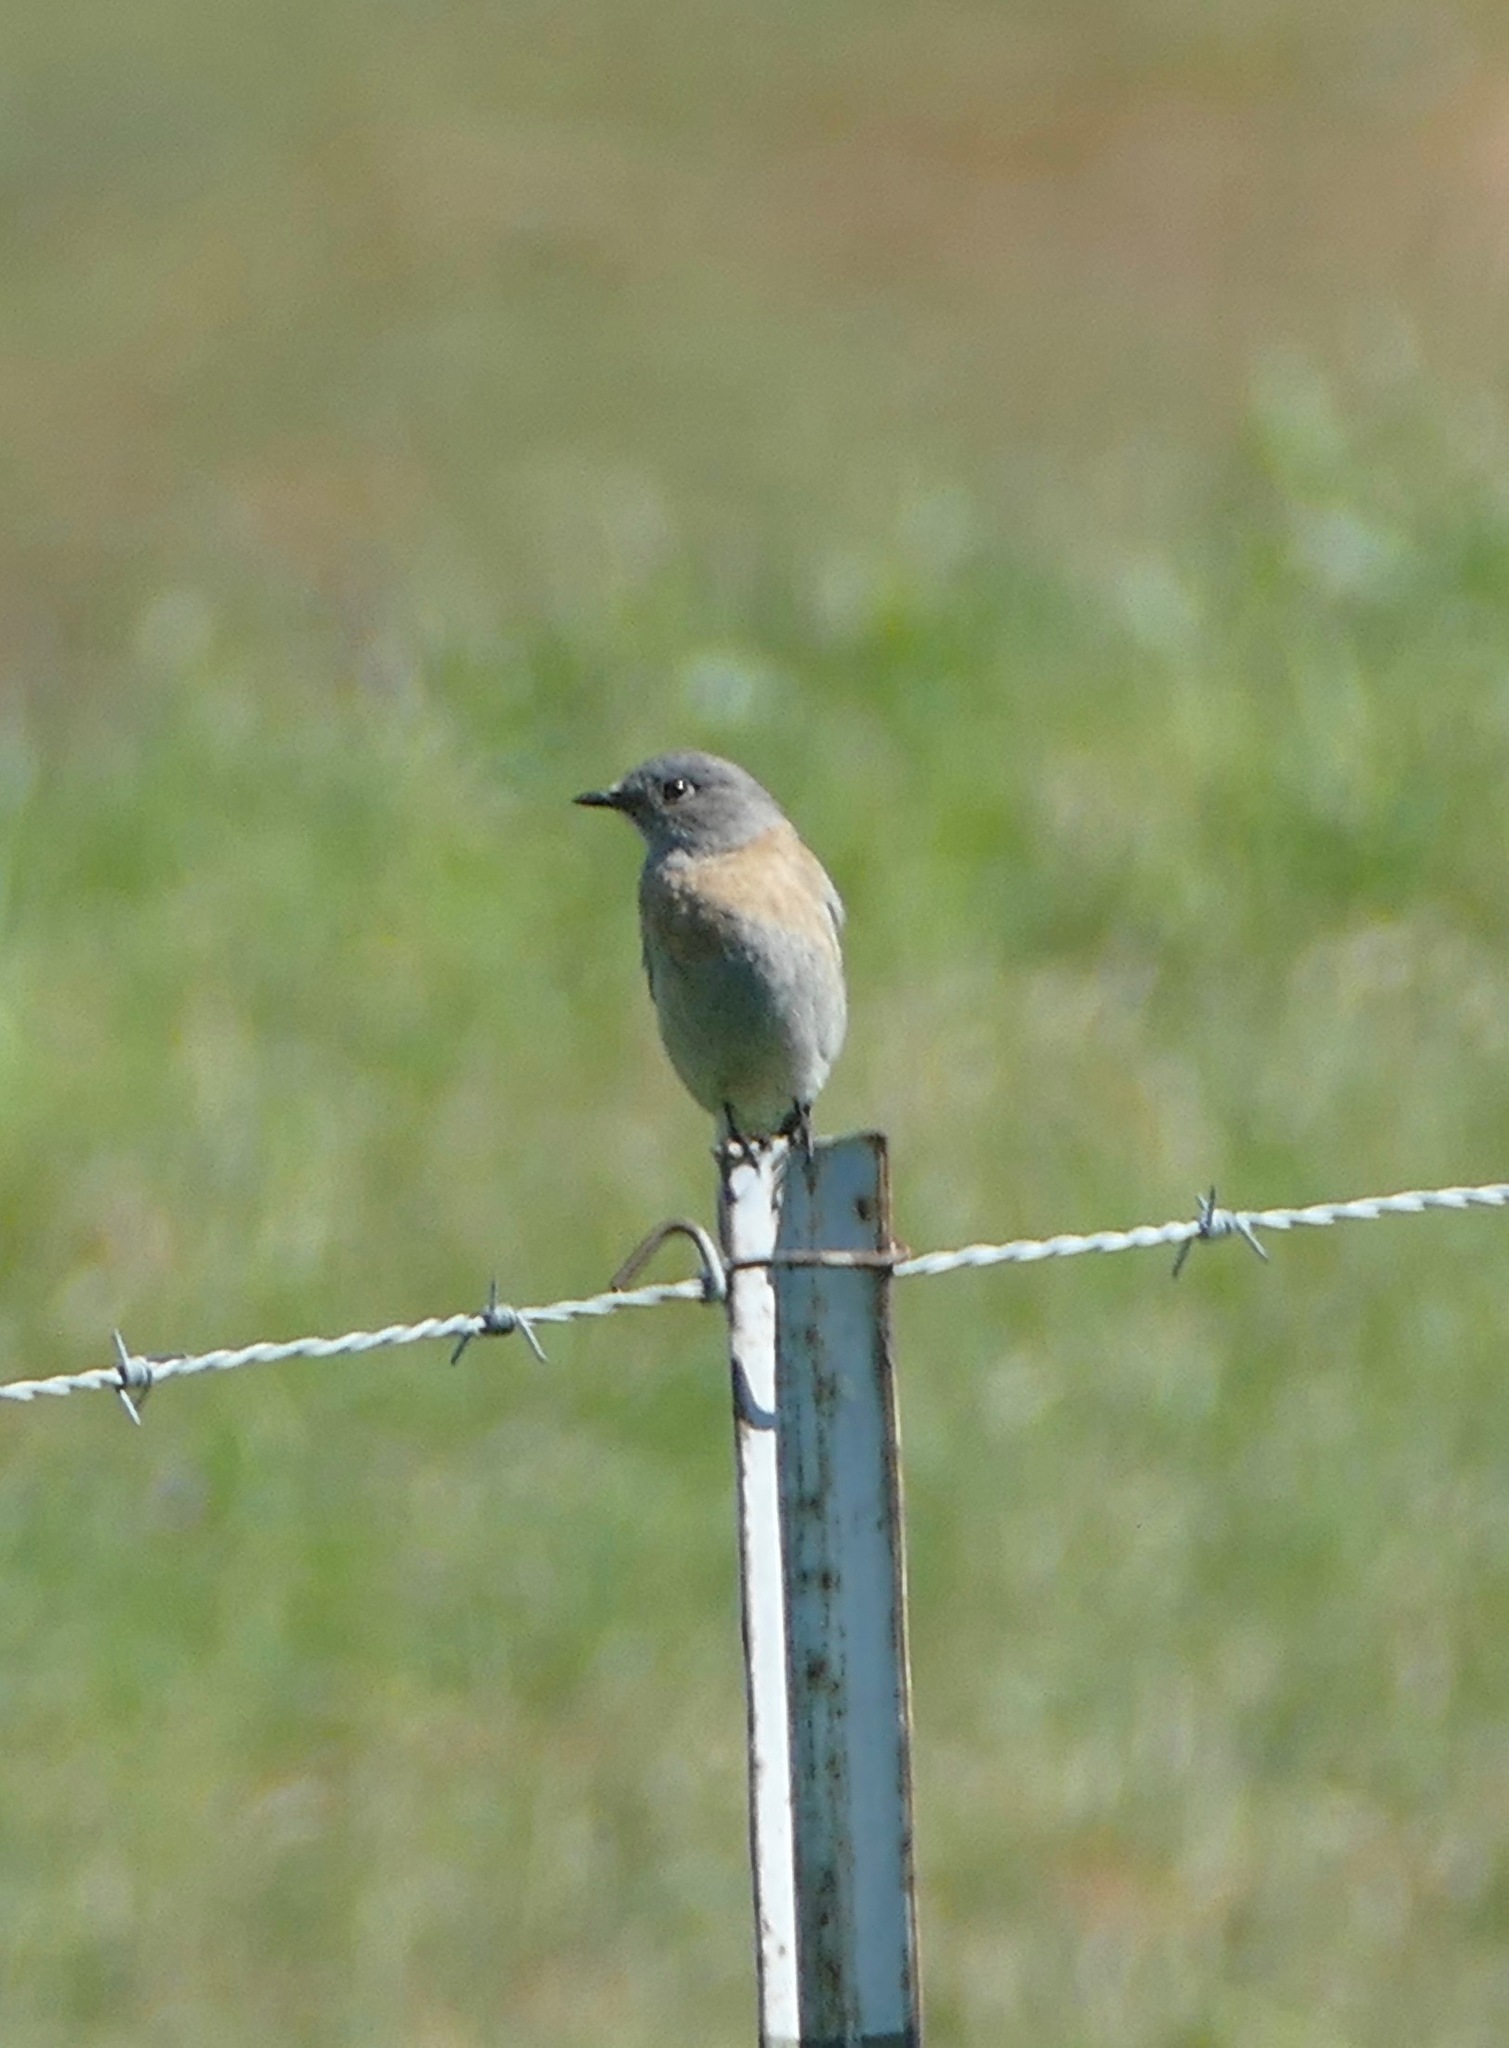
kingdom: Animalia
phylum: Chordata
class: Aves
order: Passeriformes
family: Turdidae
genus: Sialia
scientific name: Sialia mexicana
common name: Western bluebird
